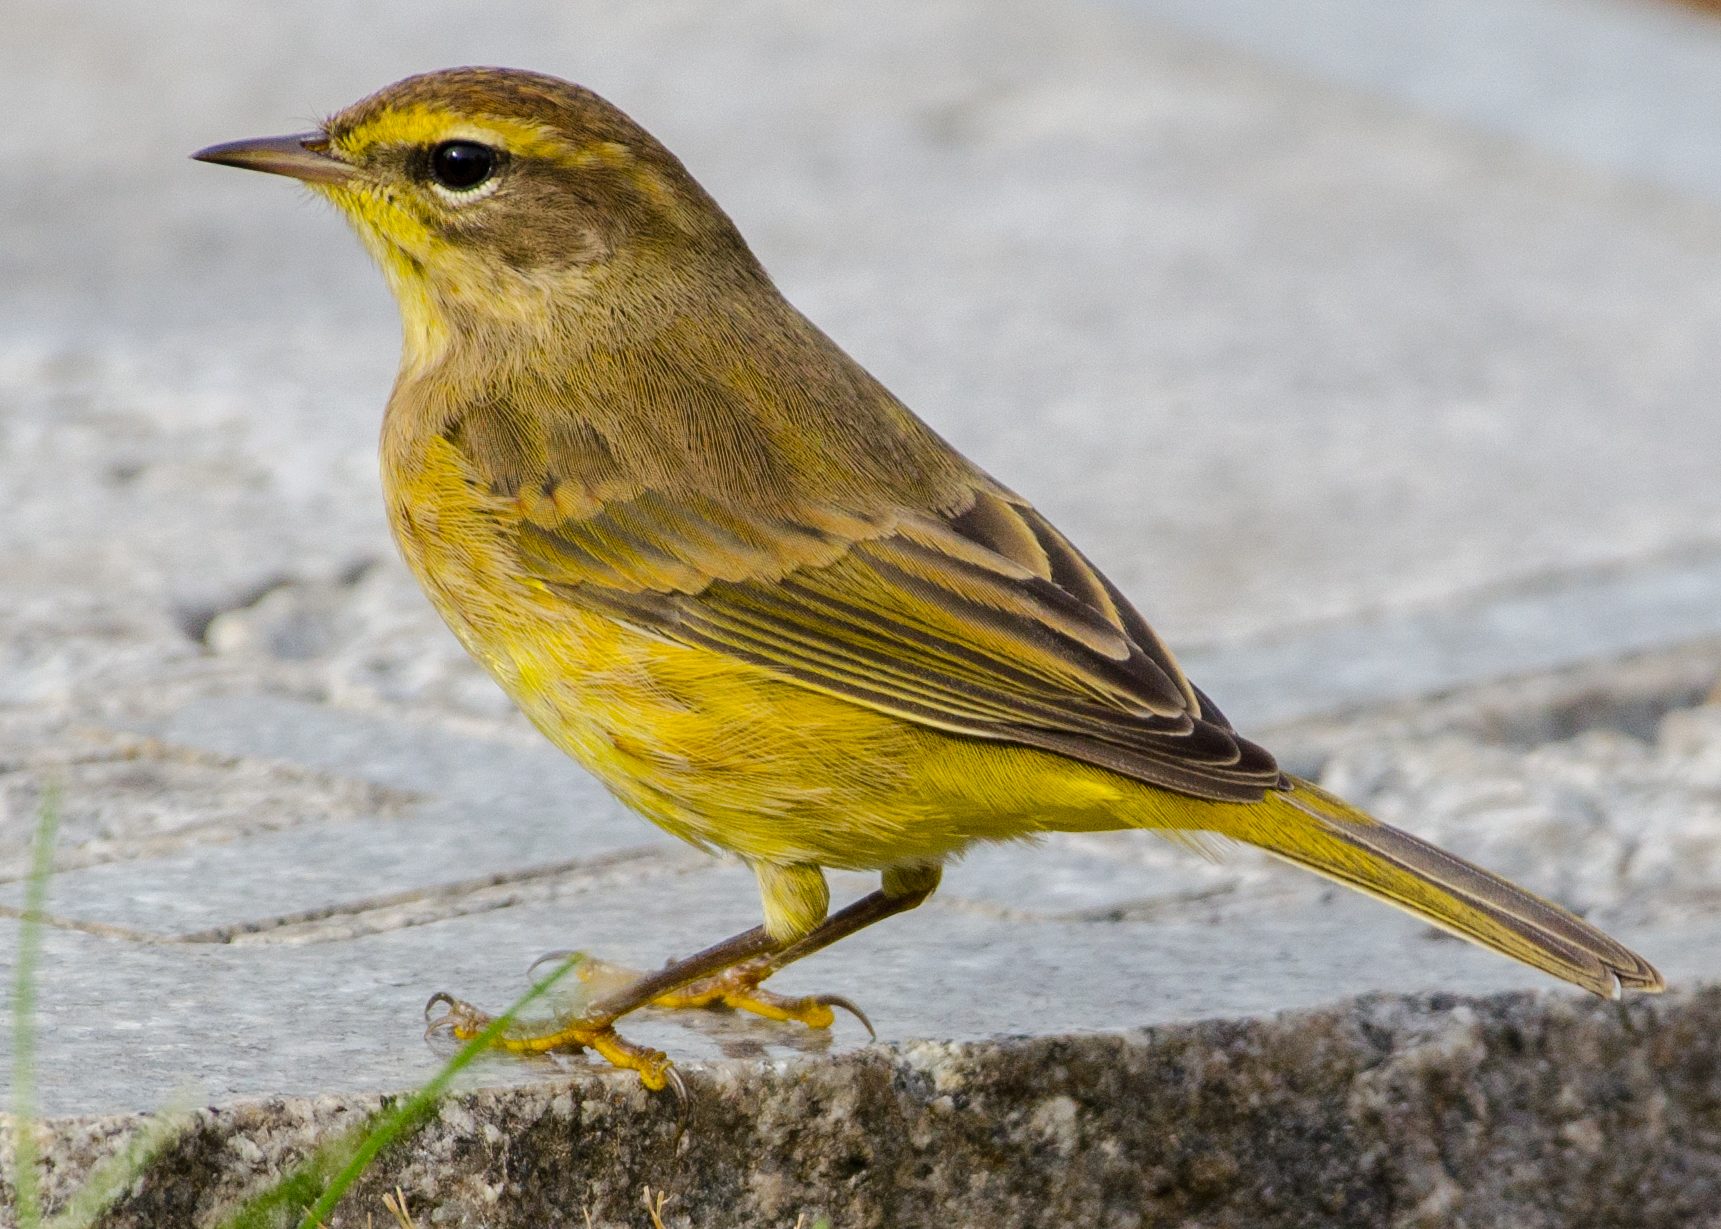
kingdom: Animalia
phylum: Chordata
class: Aves
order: Passeriformes
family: Parulidae
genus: Setophaga
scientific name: Setophaga palmarum
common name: Palm warbler
